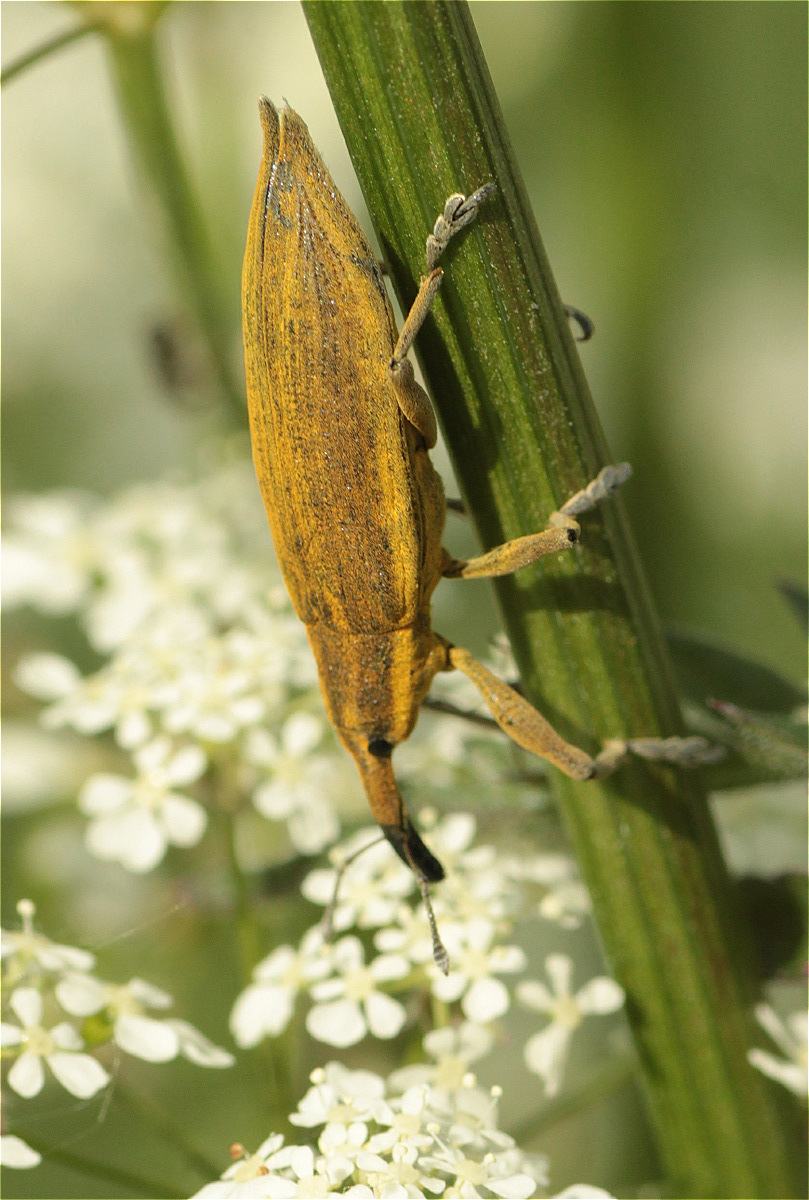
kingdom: Animalia
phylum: Arthropoda
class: Insecta
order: Coleoptera
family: Curculionidae
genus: Lixus
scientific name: Lixus iridis
